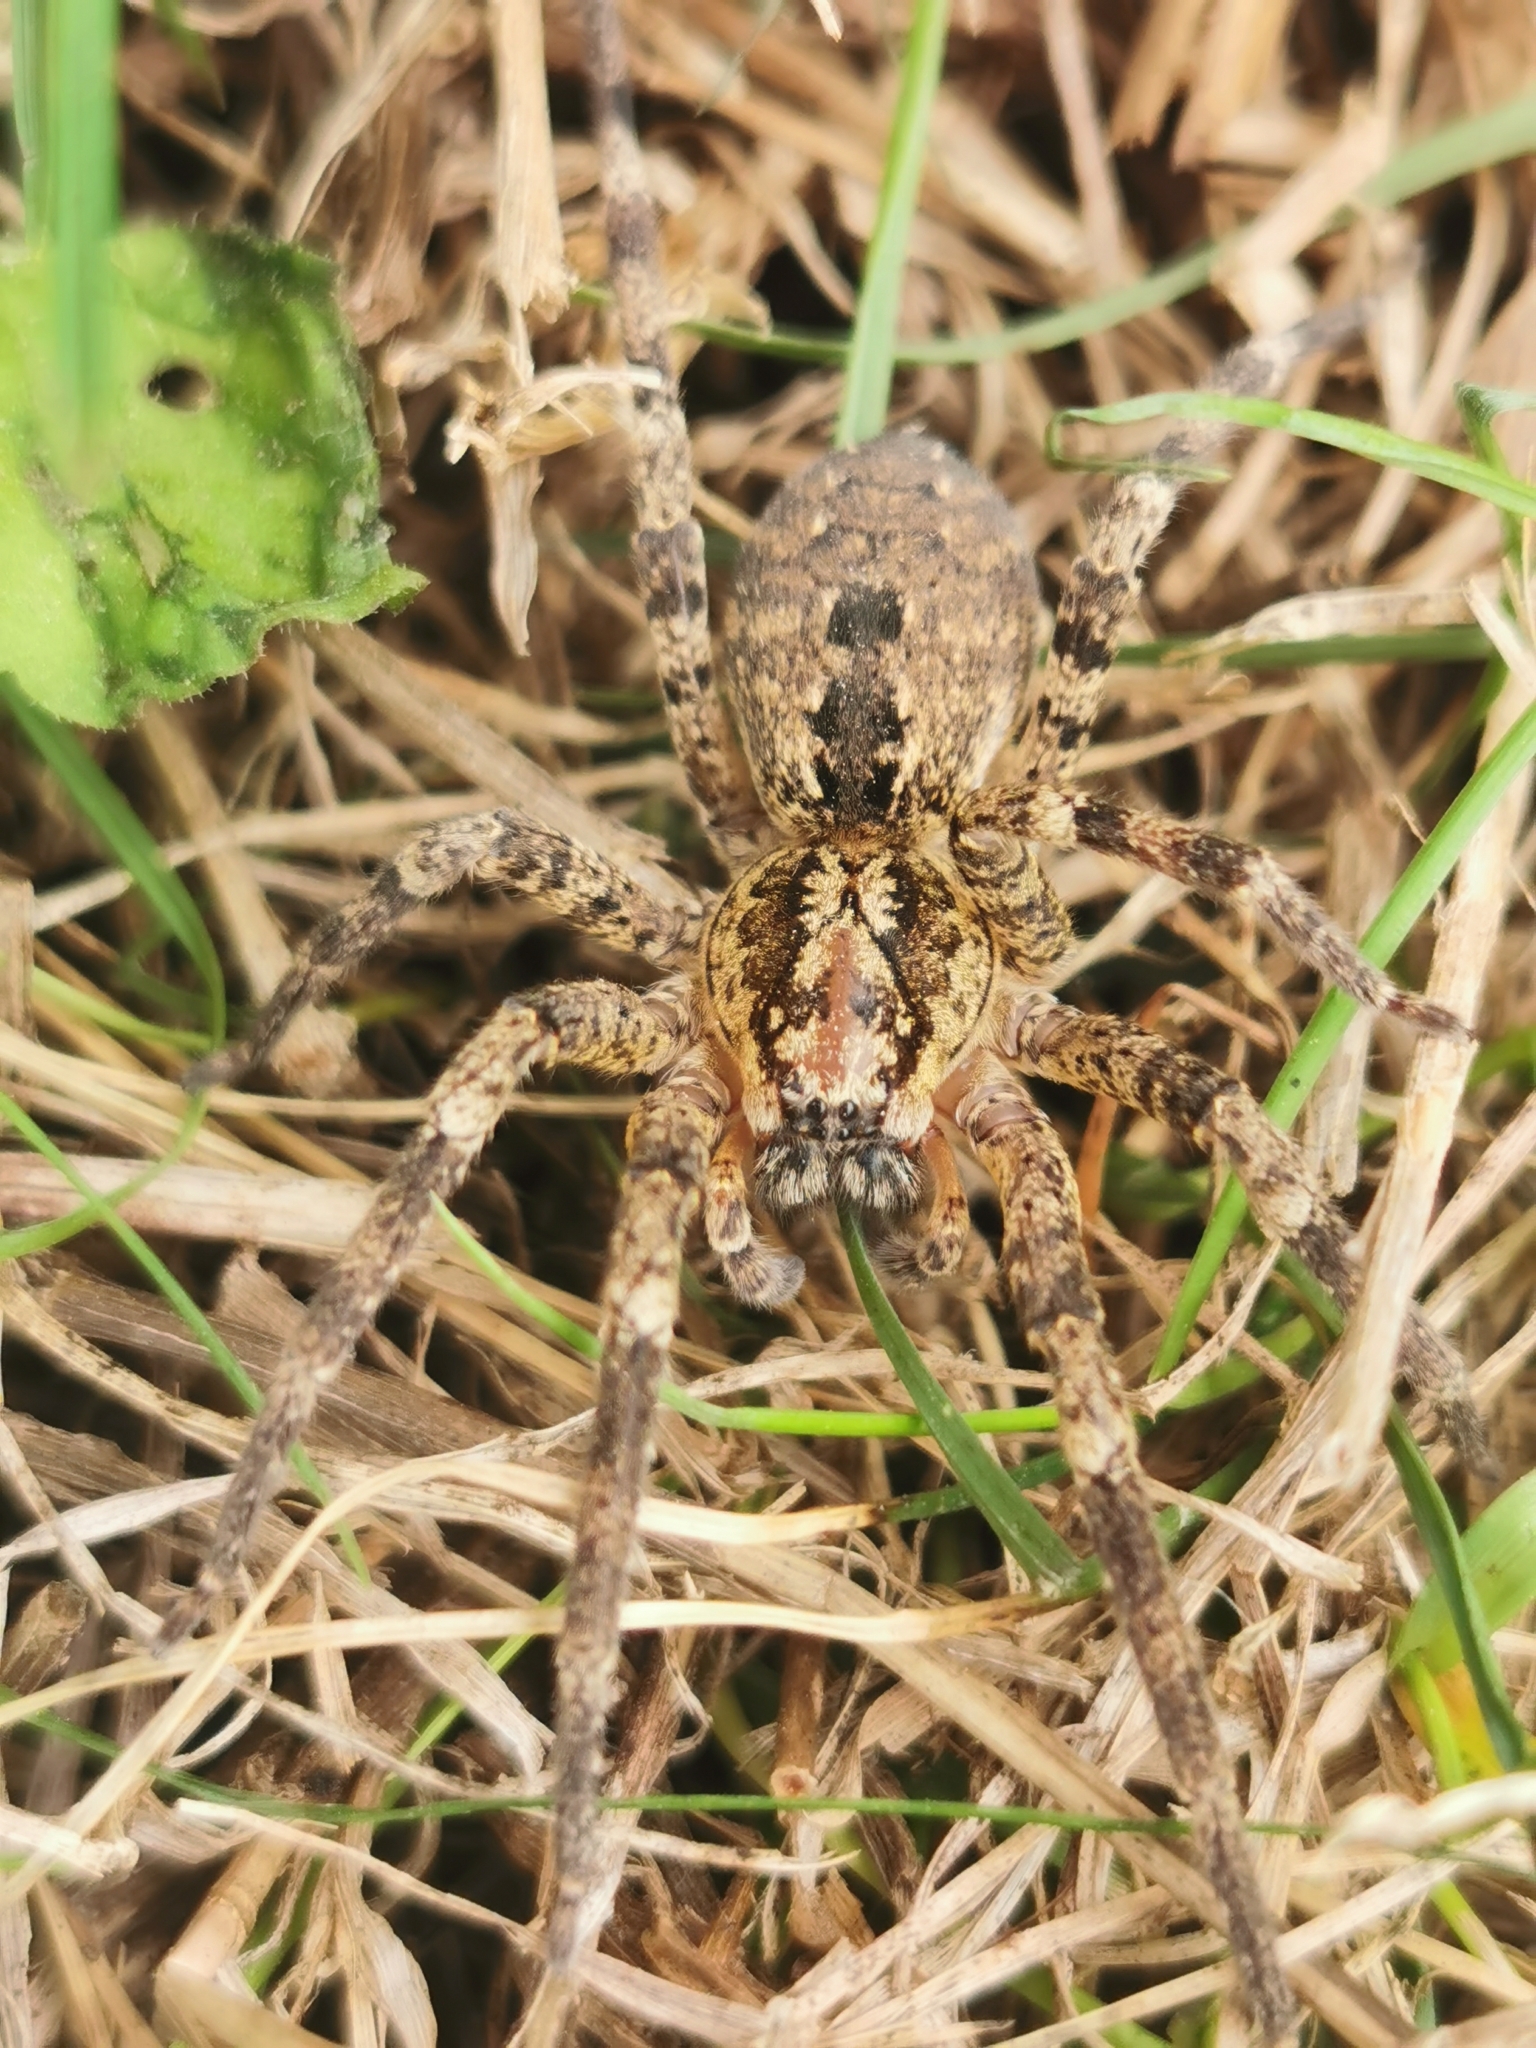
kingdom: Animalia
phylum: Arthropoda
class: Arachnida
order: Araneae
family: Zoropsidae
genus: Zoropsis
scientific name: Zoropsis spinimana
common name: Zoropsid spider
